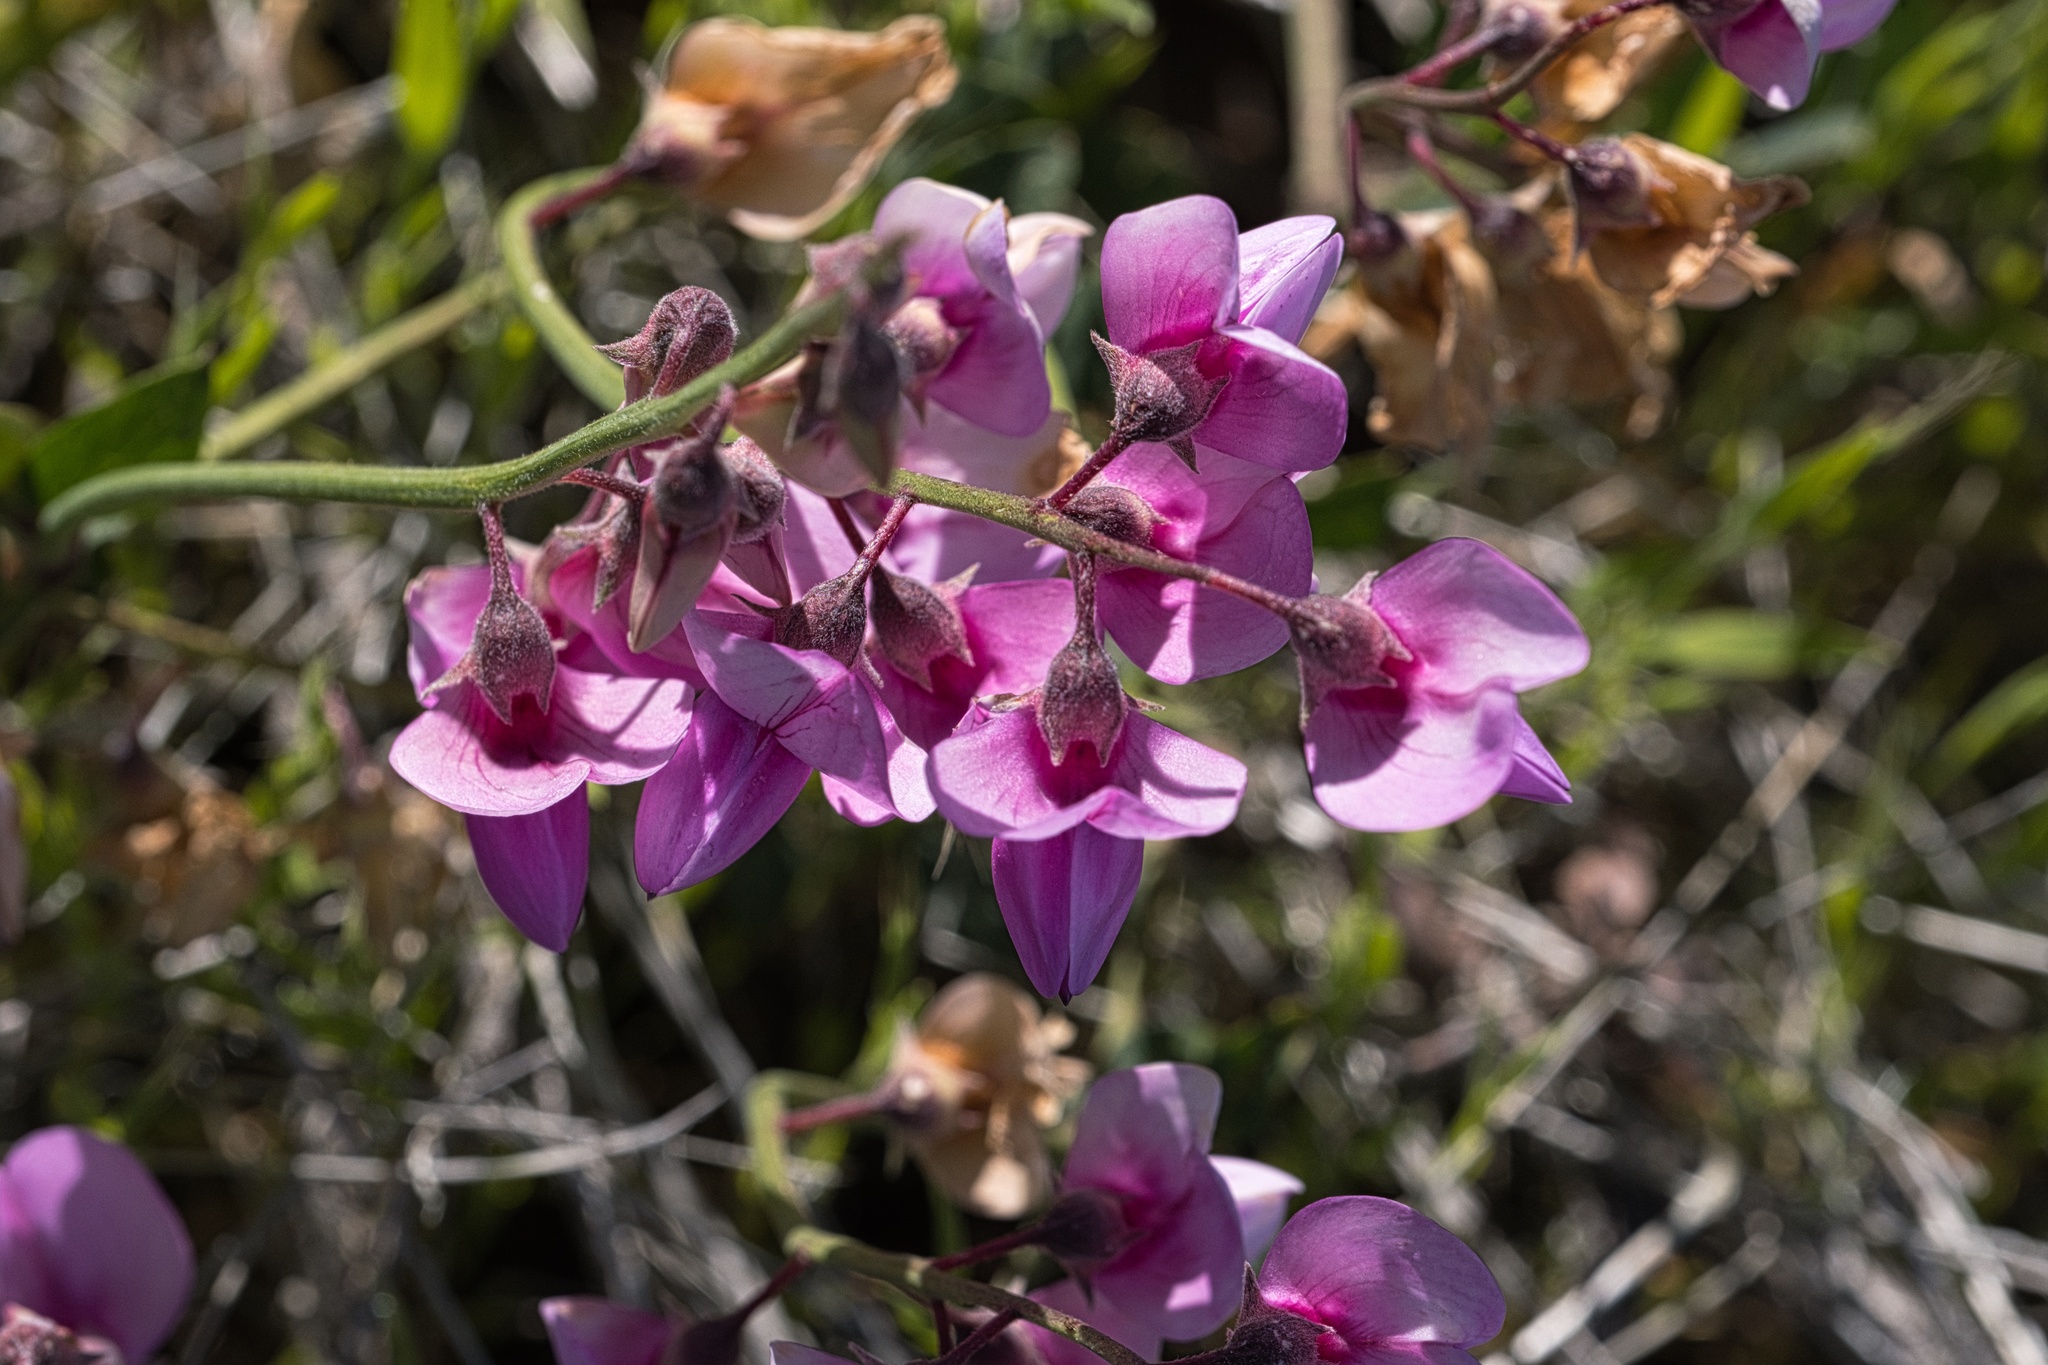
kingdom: Plantae
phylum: Tracheophyta
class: Magnoliopsida
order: Fabales
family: Fabaceae
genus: Lathyrus
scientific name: Lathyrus vestitus
